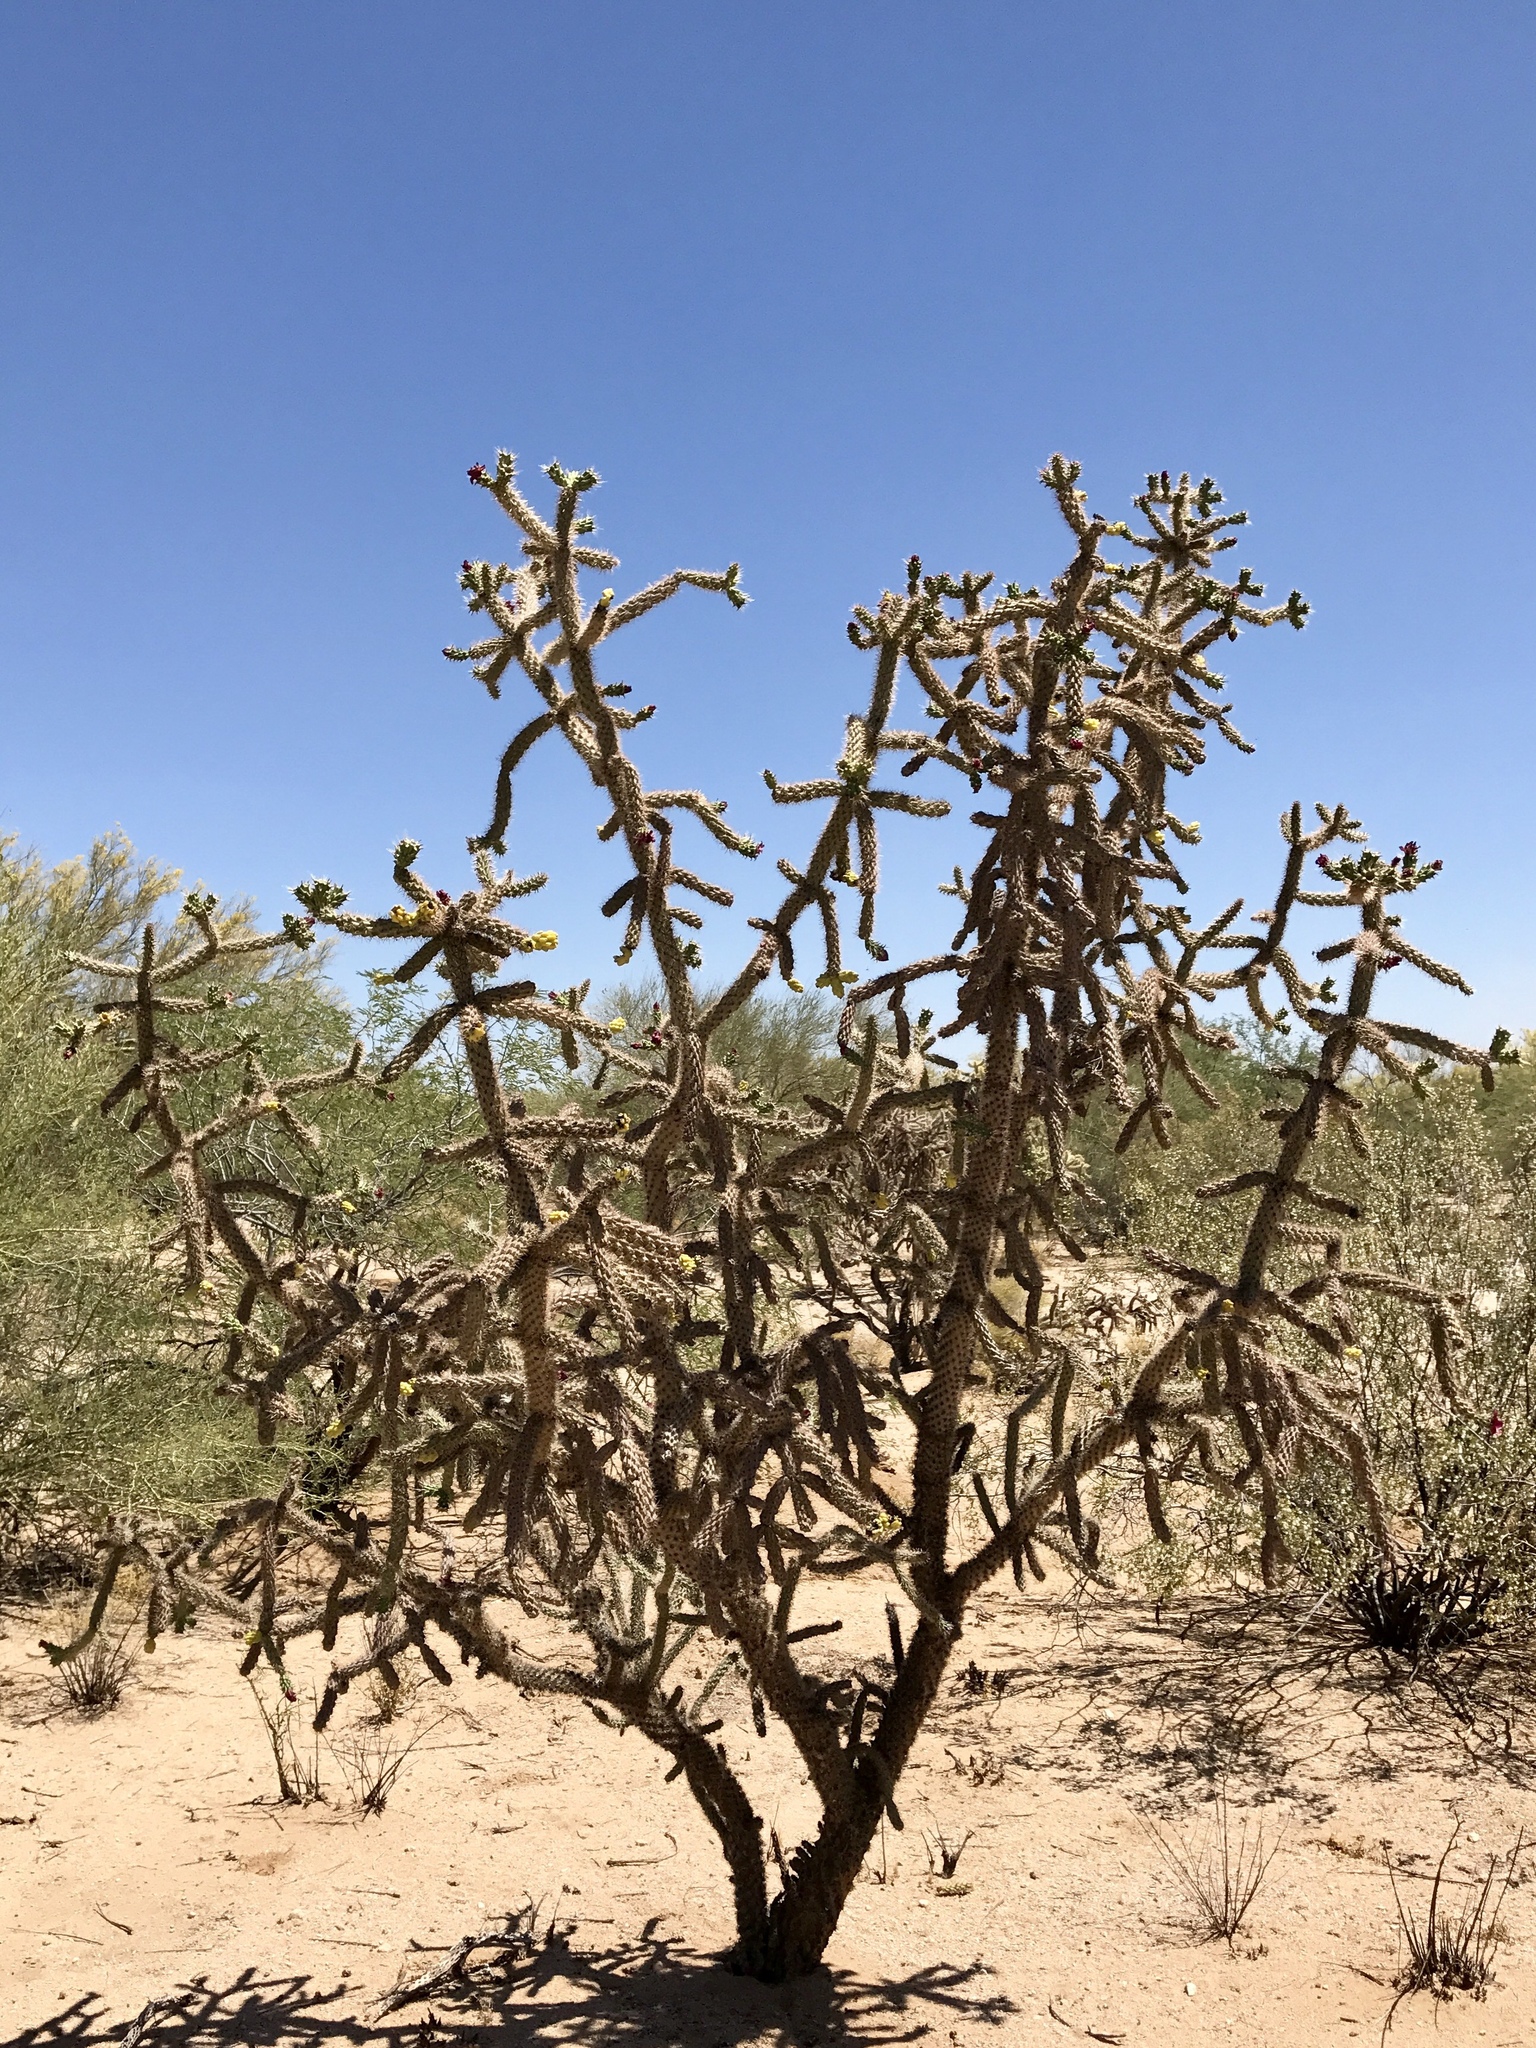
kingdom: Plantae
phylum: Tracheophyta
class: Magnoliopsida
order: Caryophyllales
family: Cactaceae
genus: Cylindropuntia
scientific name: Cylindropuntia imbricata
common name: Candelabrum cactus
